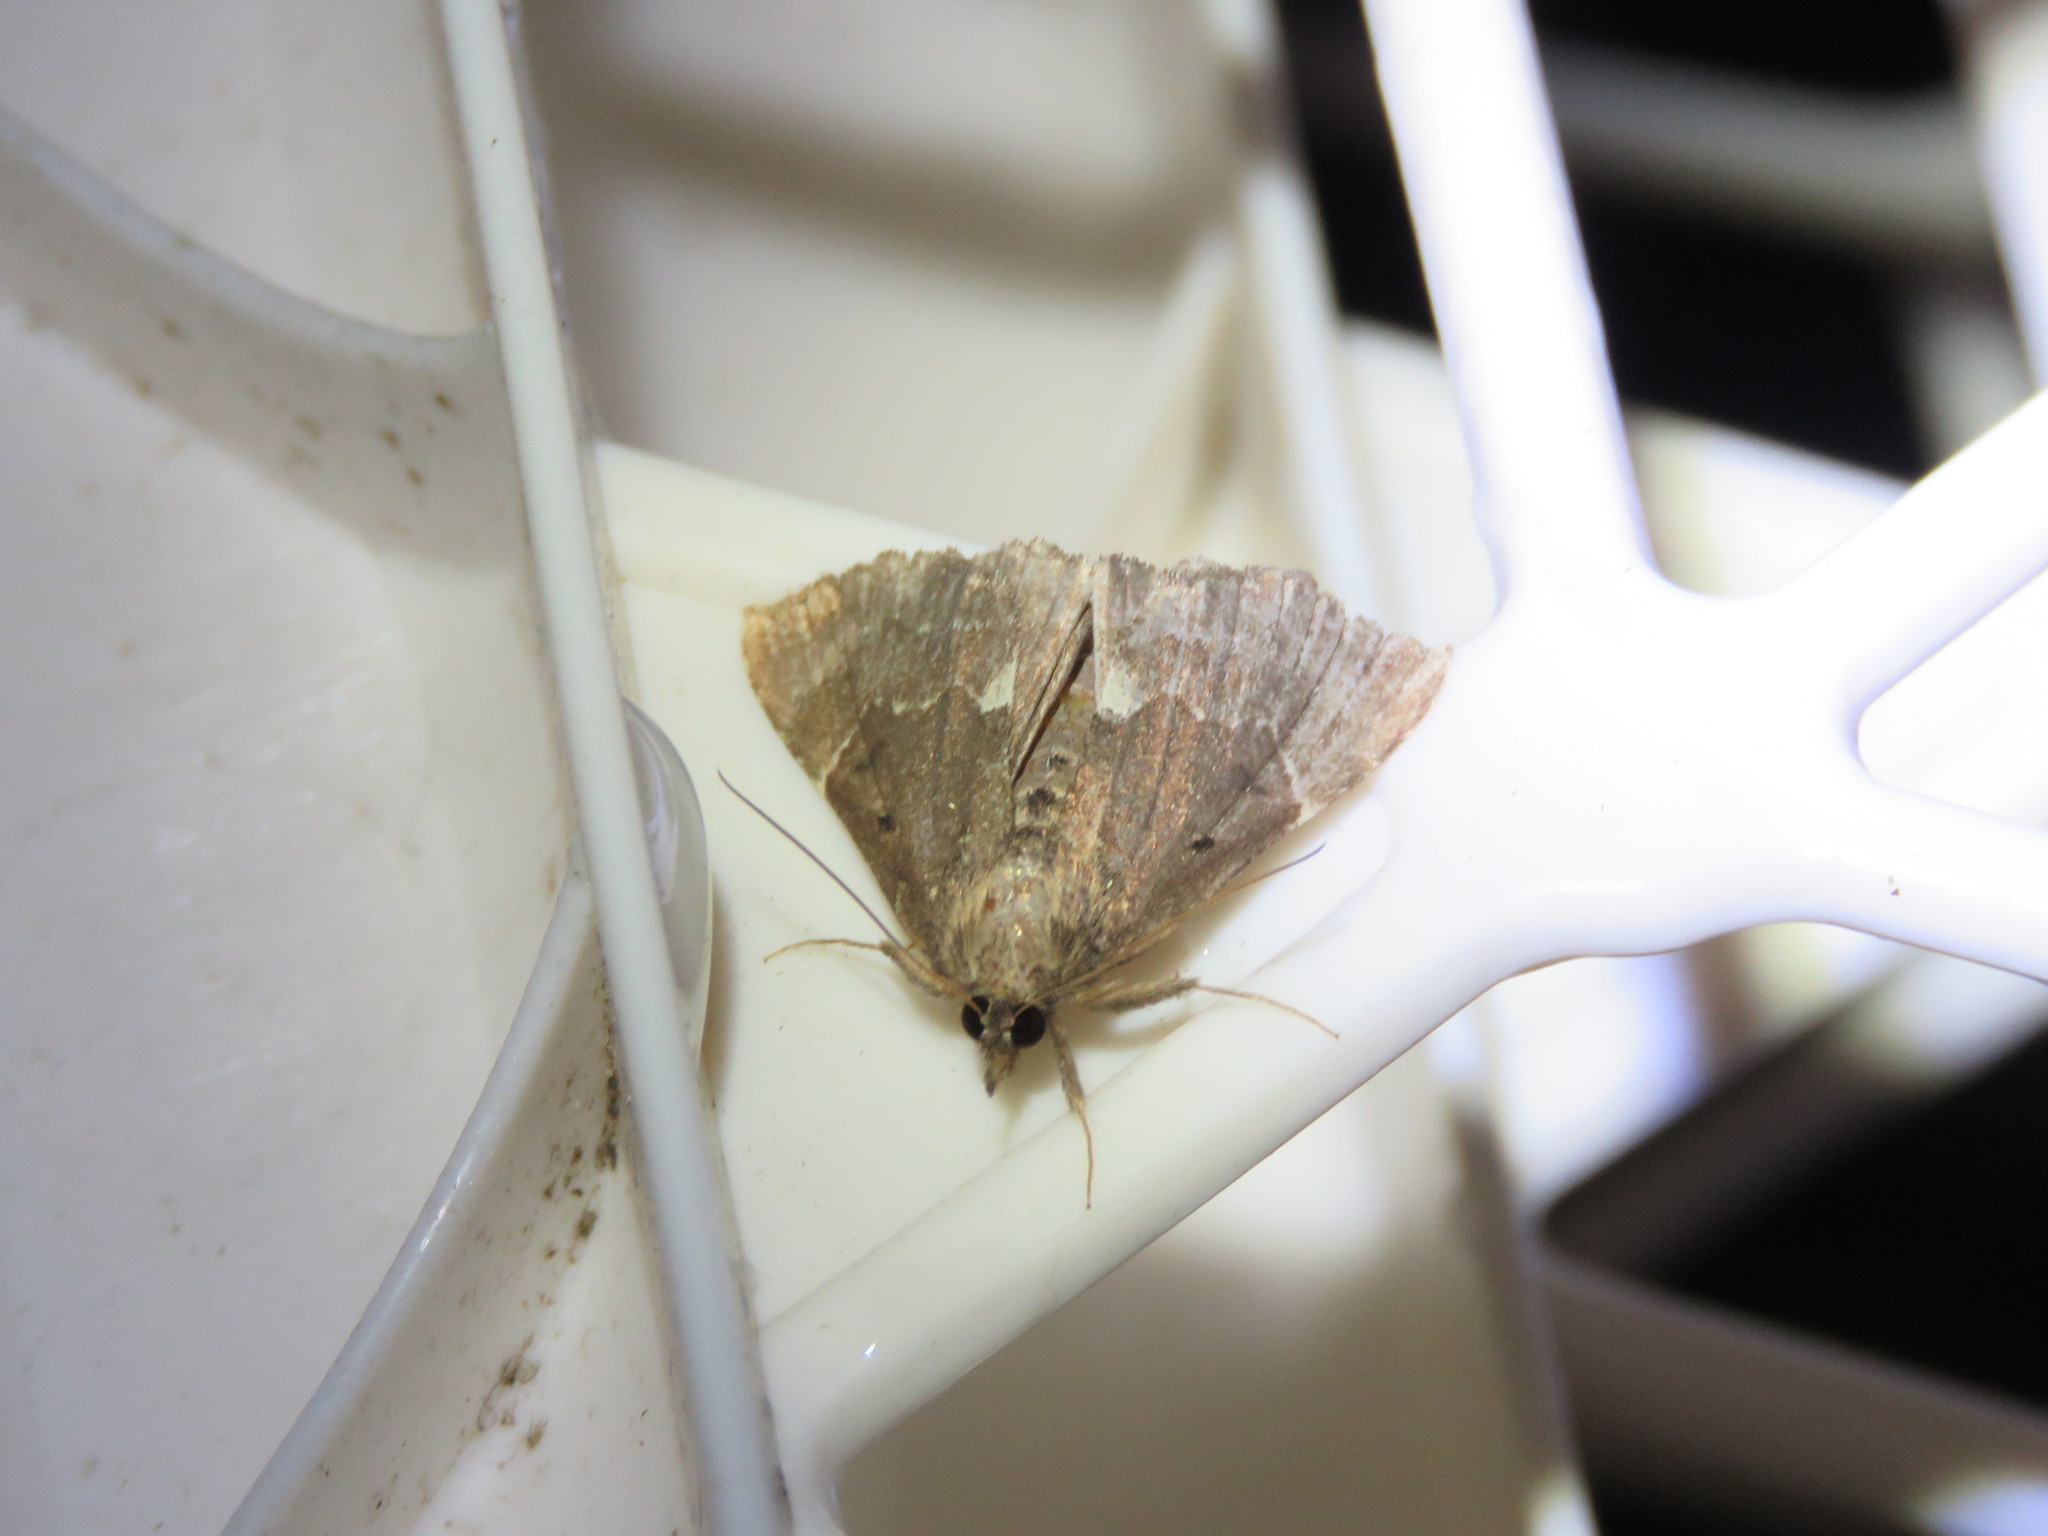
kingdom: Animalia
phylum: Arthropoda
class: Insecta
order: Lepidoptera
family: Erebidae
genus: Hypena
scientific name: Hypena bijugalis
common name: Dimorphic bomolocha moth
